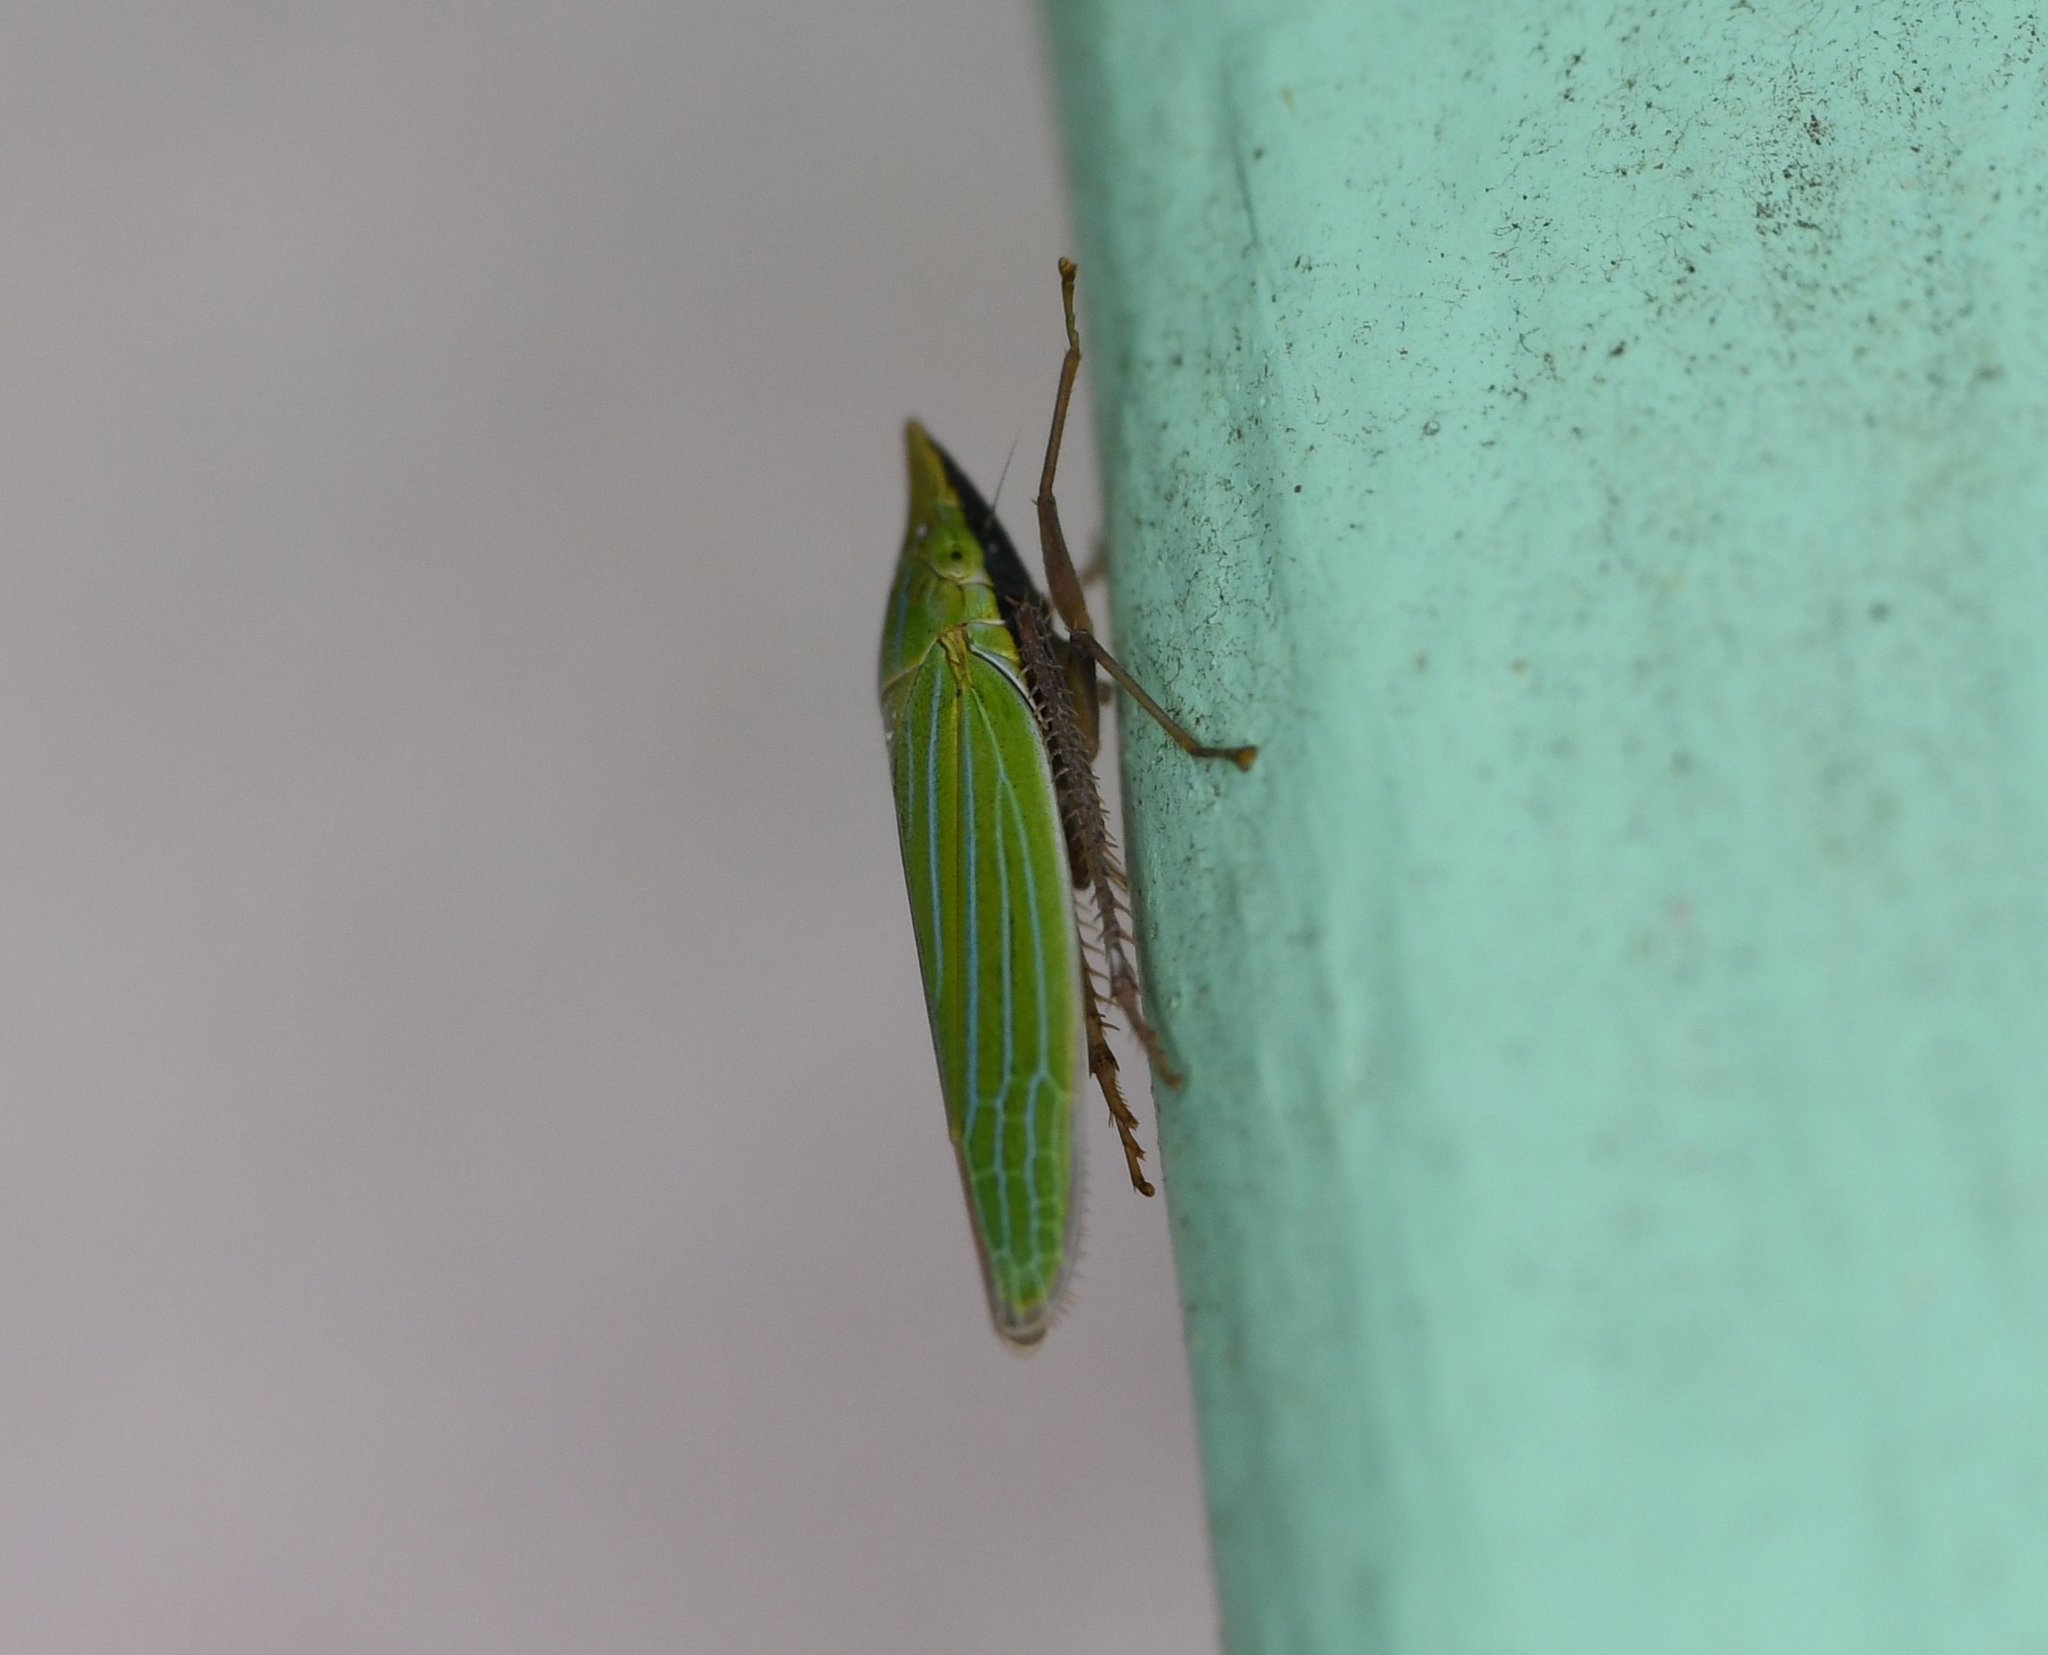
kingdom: Animalia
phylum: Arthropoda
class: Insecta
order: Hemiptera
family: Cicadellidae
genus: Draeculacephala
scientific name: Draeculacephala producta
